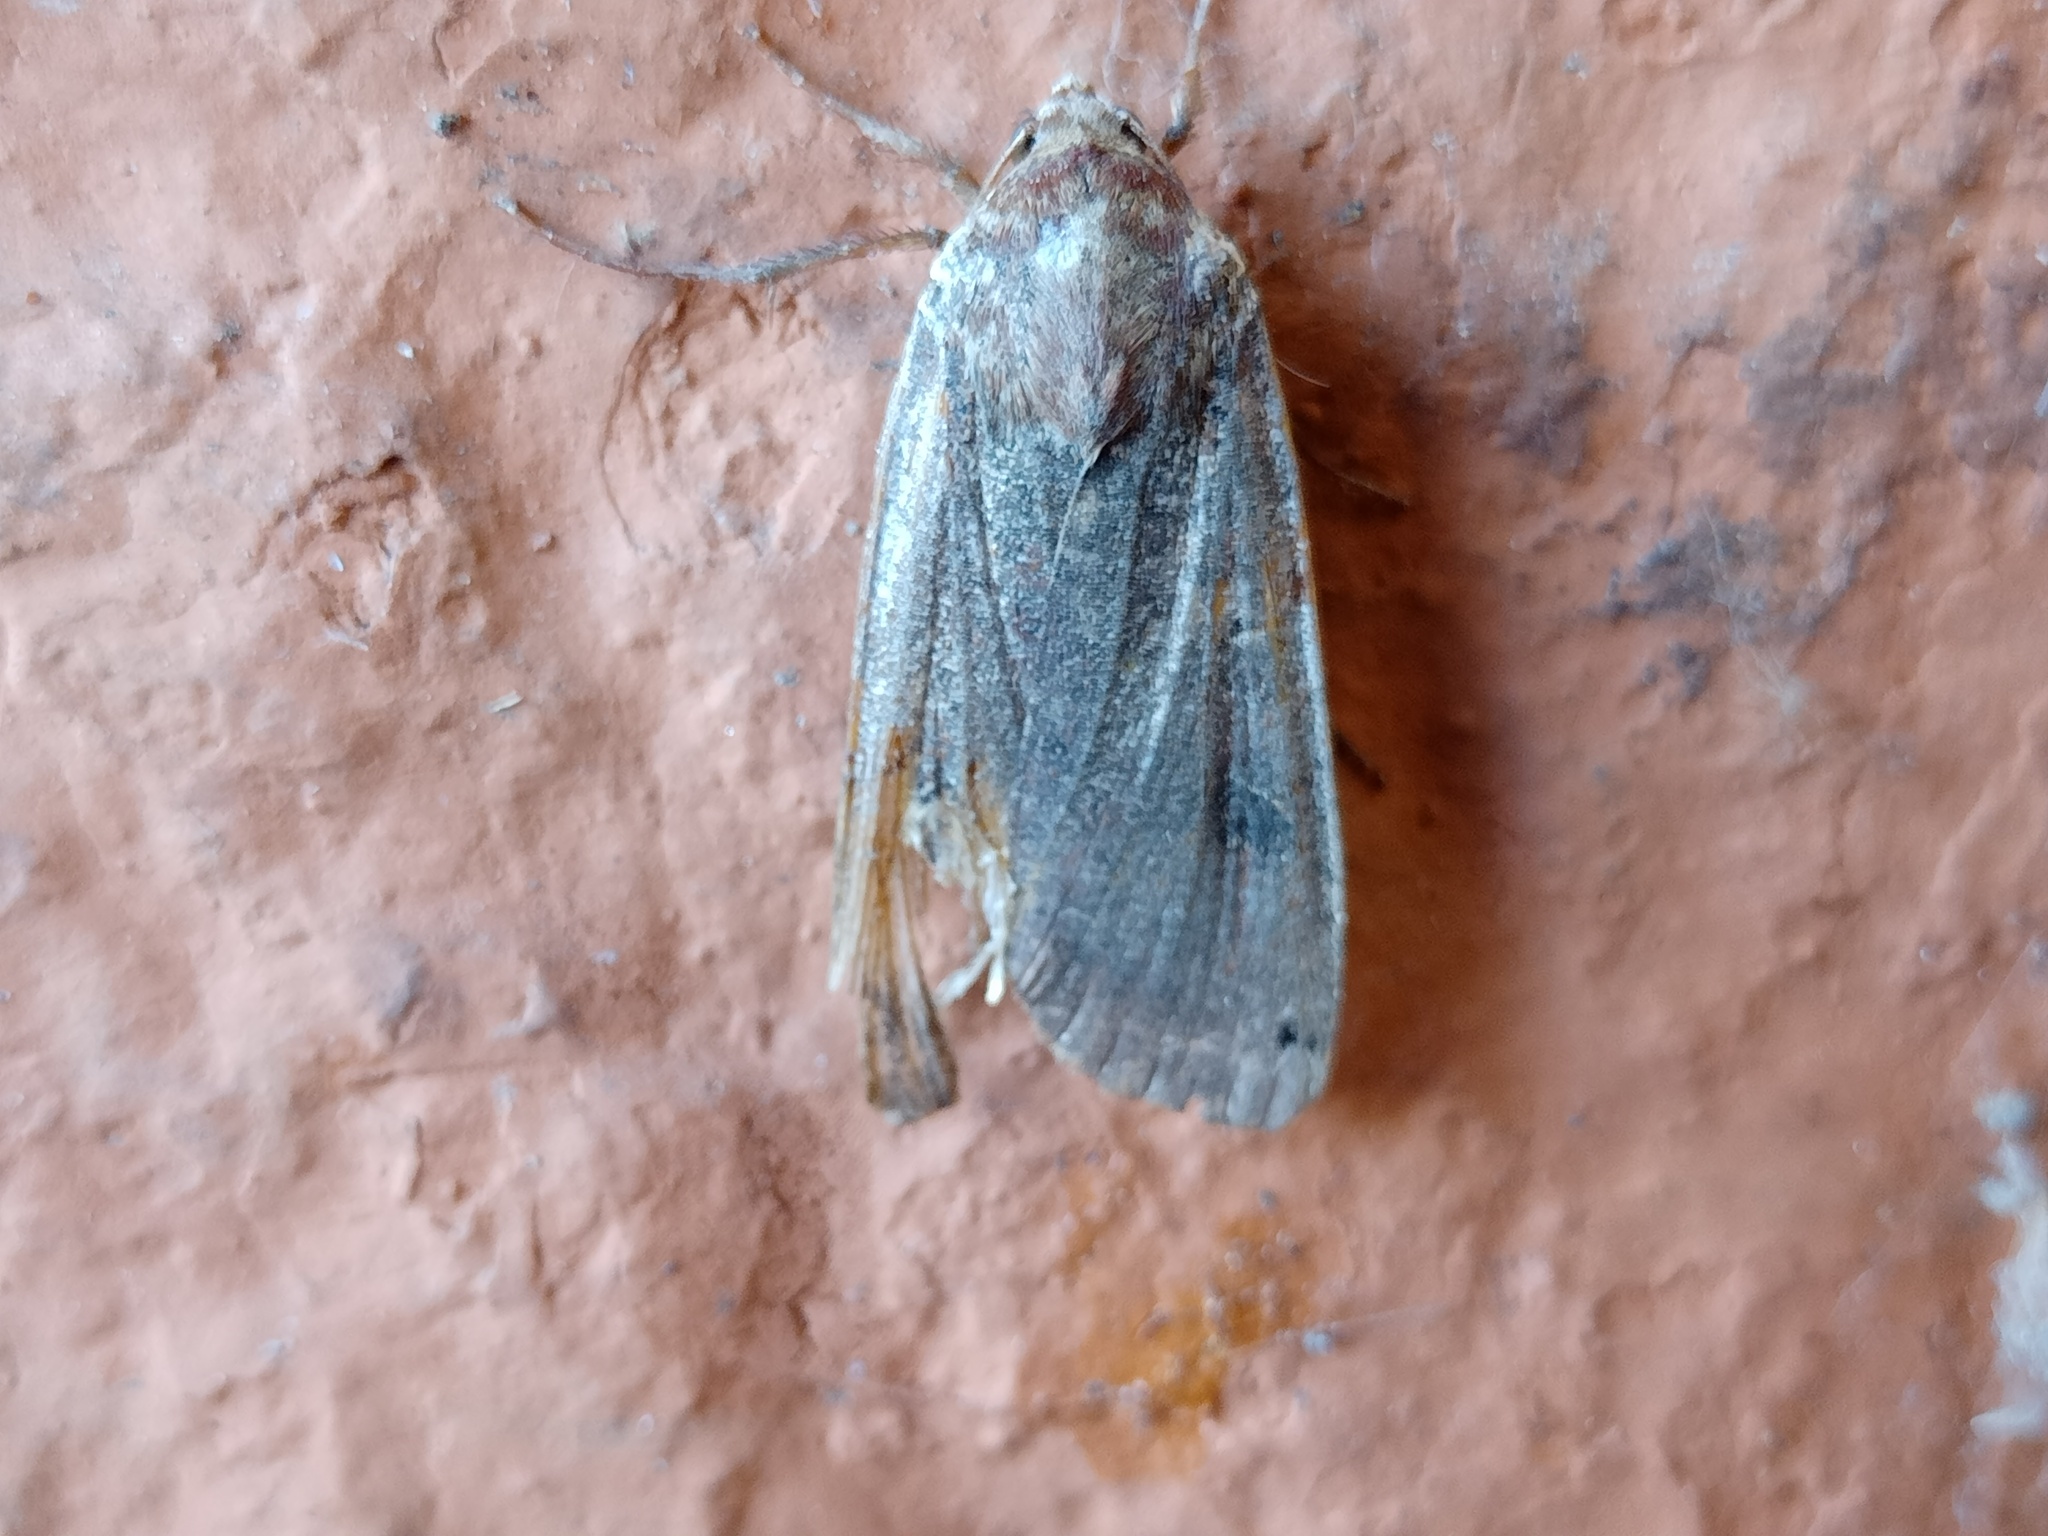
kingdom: Animalia
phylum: Arthropoda
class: Insecta
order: Lepidoptera
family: Noctuidae
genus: Noctua
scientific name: Noctua pronuba
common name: Large yellow underwing
